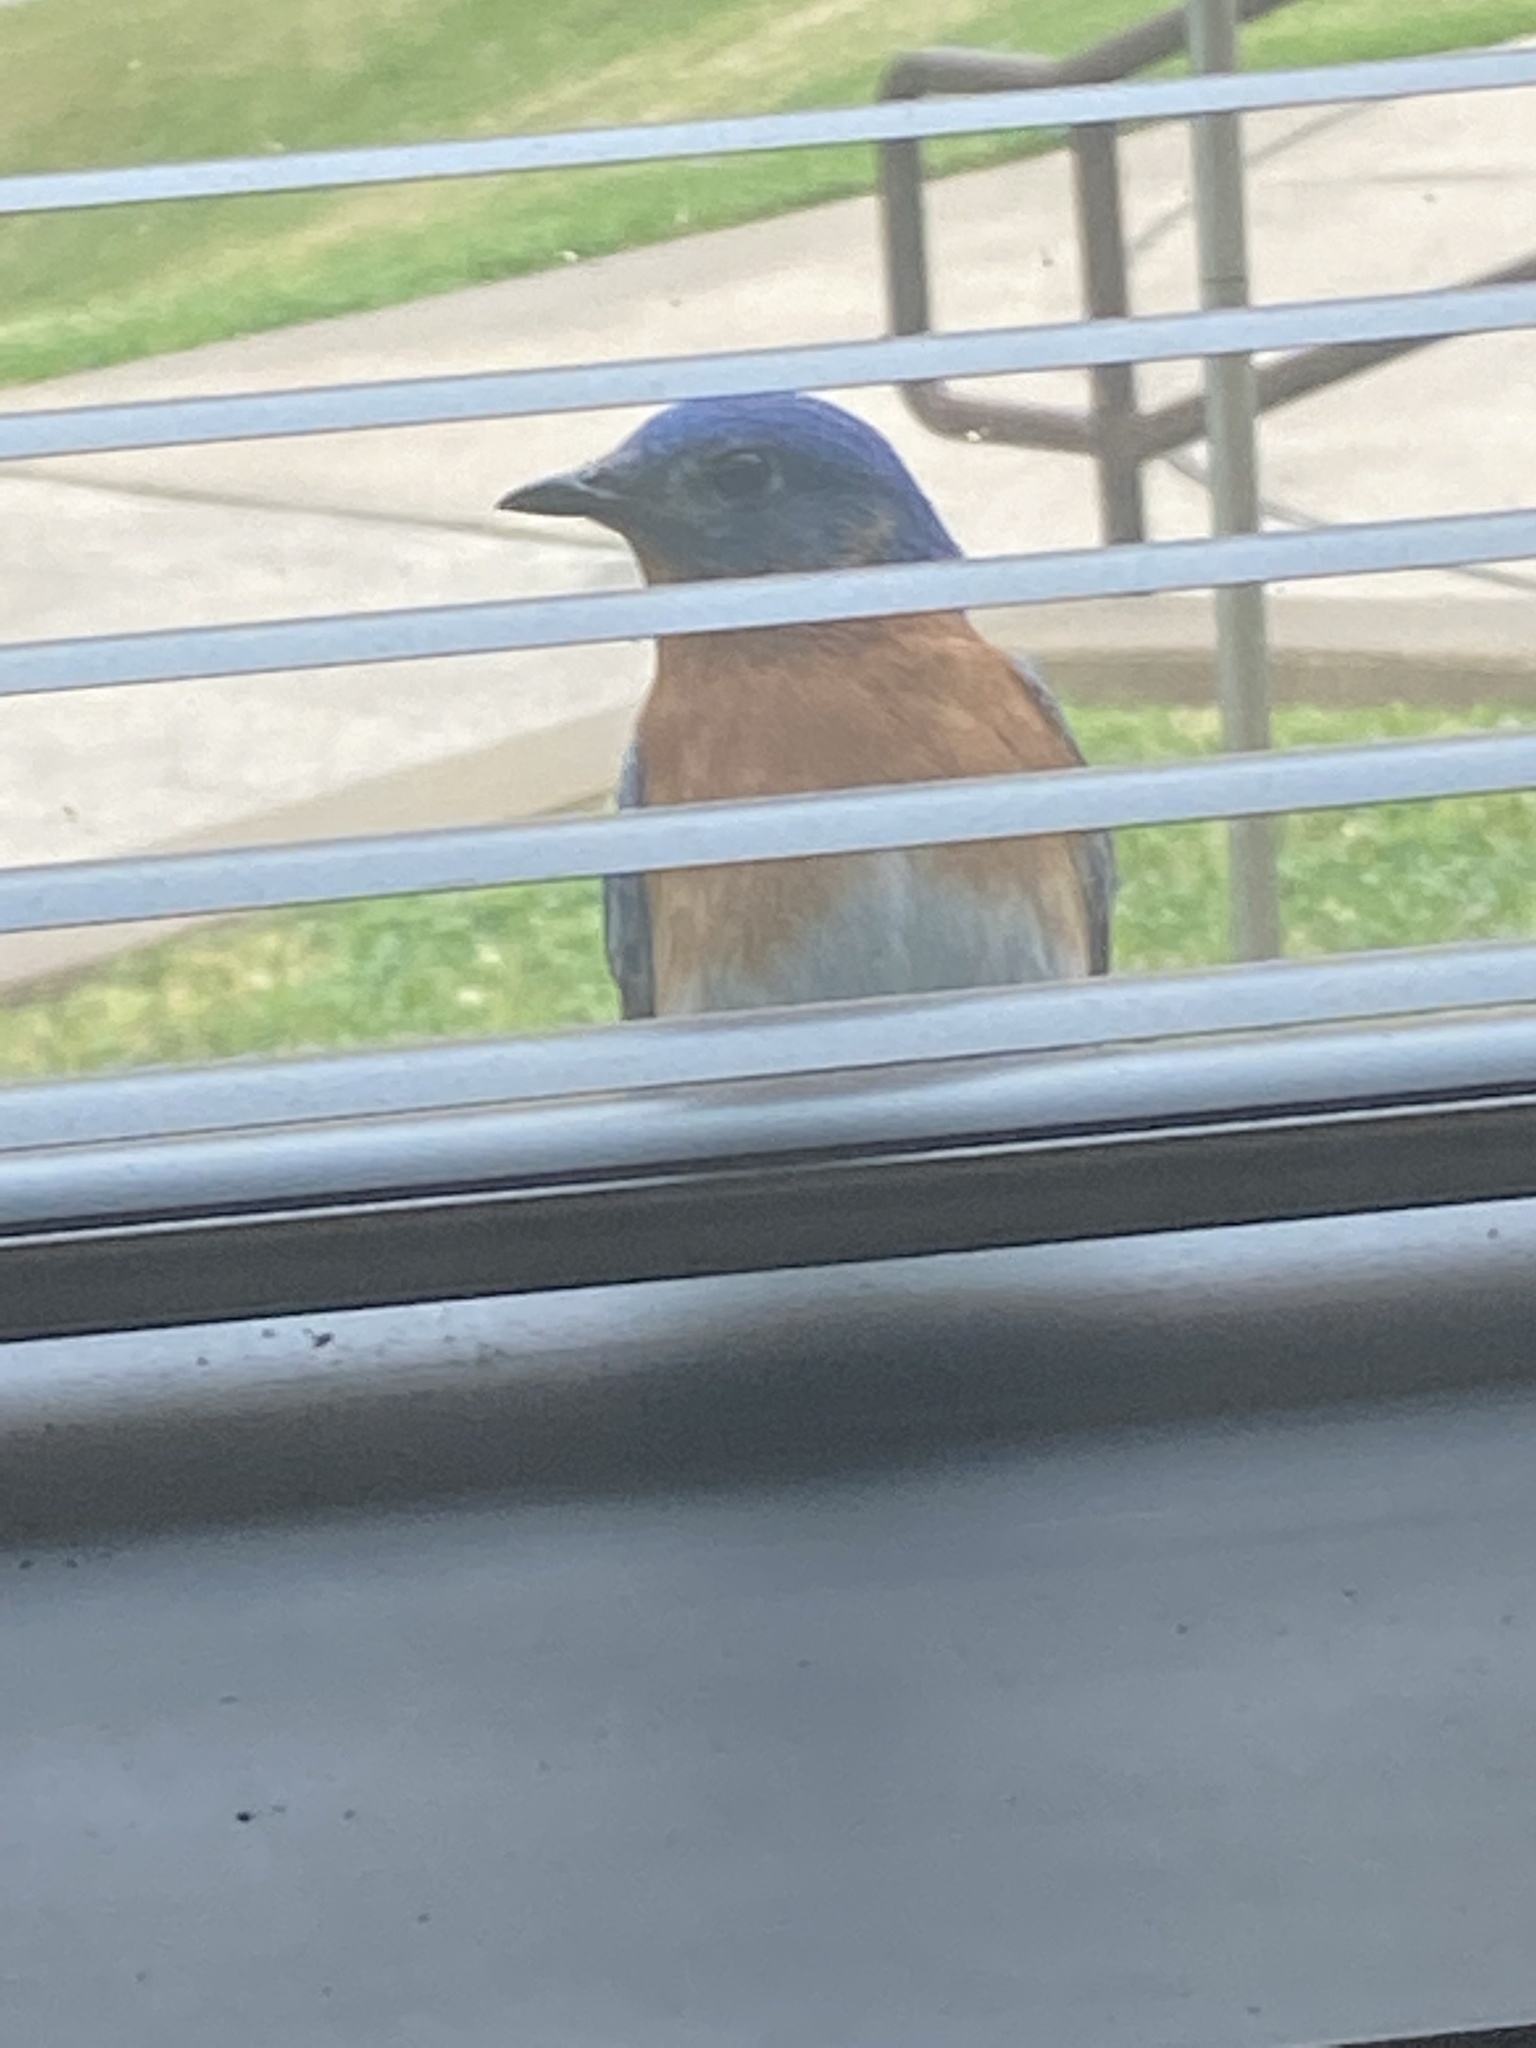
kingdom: Animalia
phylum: Chordata
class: Aves
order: Passeriformes
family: Turdidae
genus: Sialia
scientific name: Sialia sialis
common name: Eastern bluebird
